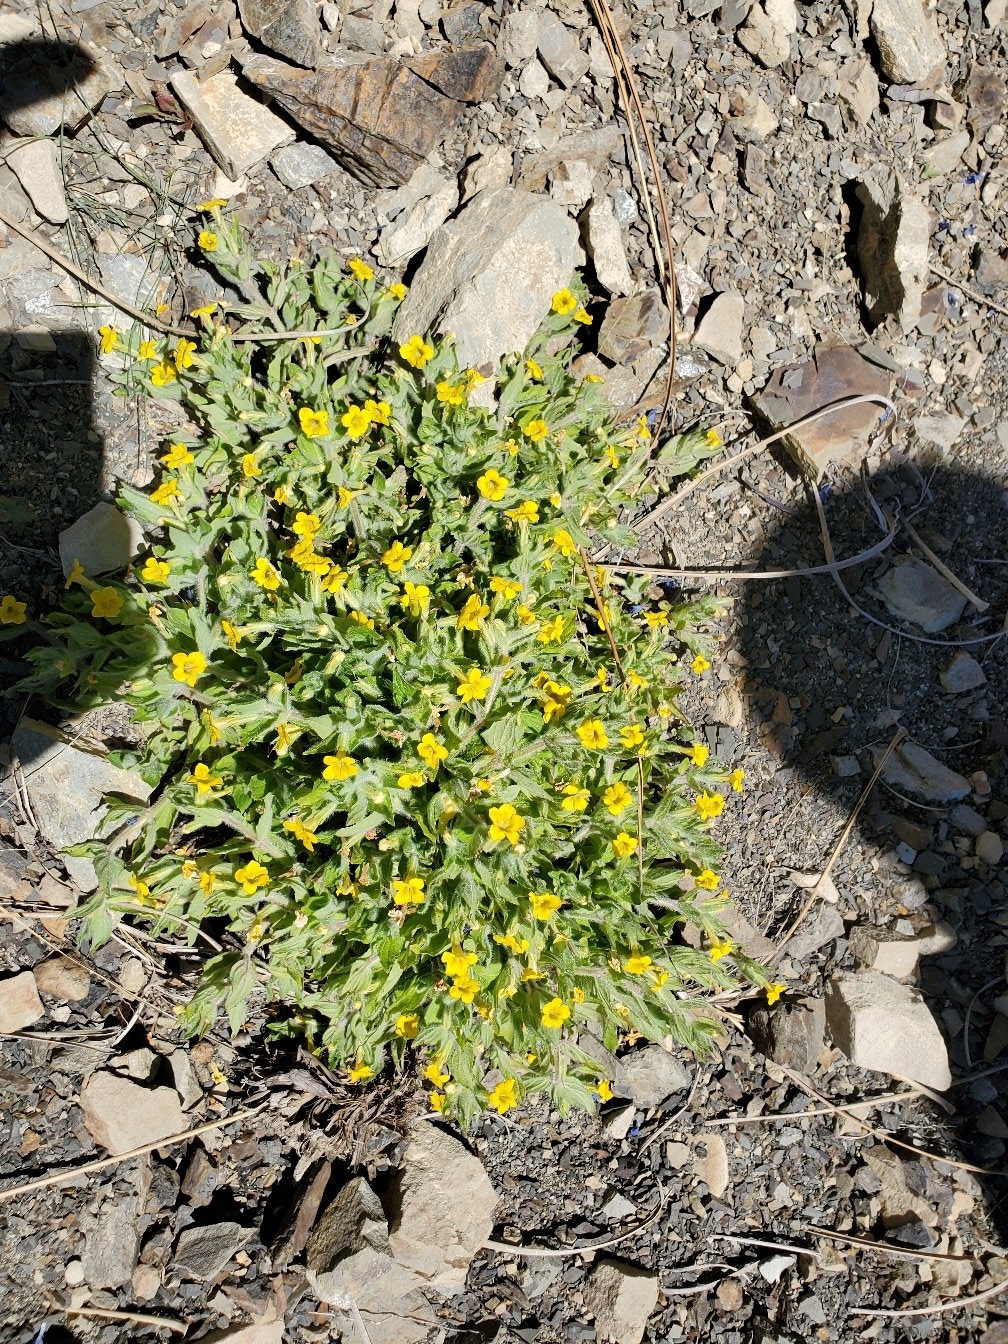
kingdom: Plantae
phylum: Tracheophyta
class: Magnoliopsida
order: Lamiales
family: Phrymaceae
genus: Erythranthe
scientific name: Erythranthe moschata
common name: Muskflower
